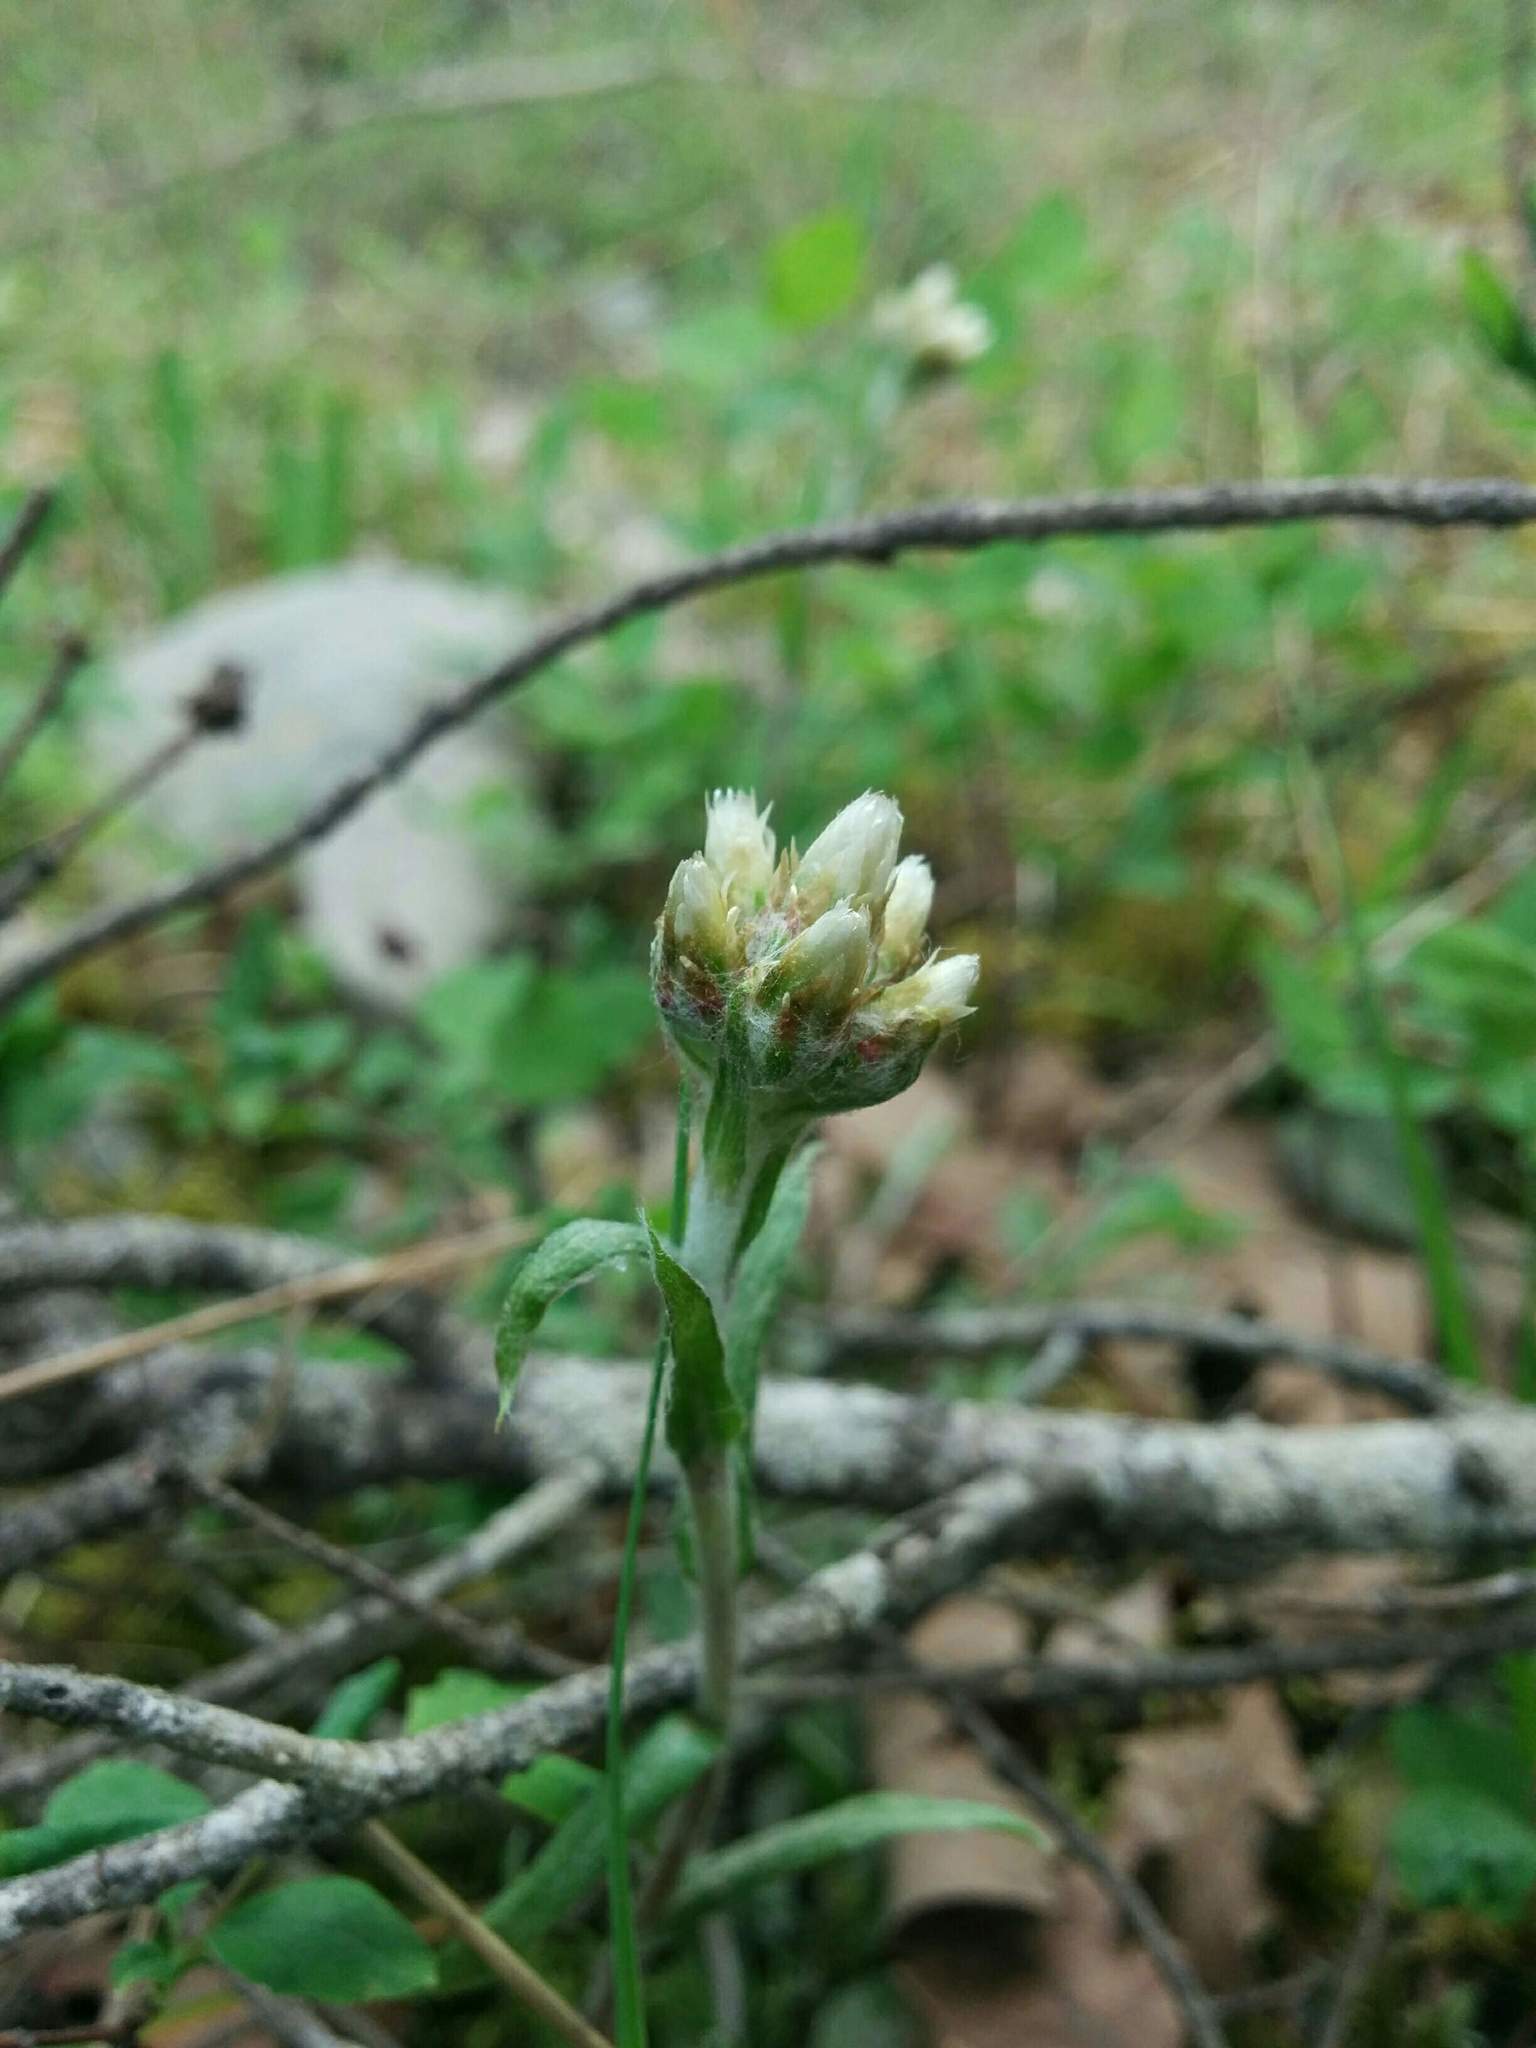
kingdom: Plantae
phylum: Tracheophyta
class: Magnoliopsida
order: Asterales
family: Asteraceae
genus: Antennaria
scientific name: Antennaria howellii
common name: Howell's pussytoes
